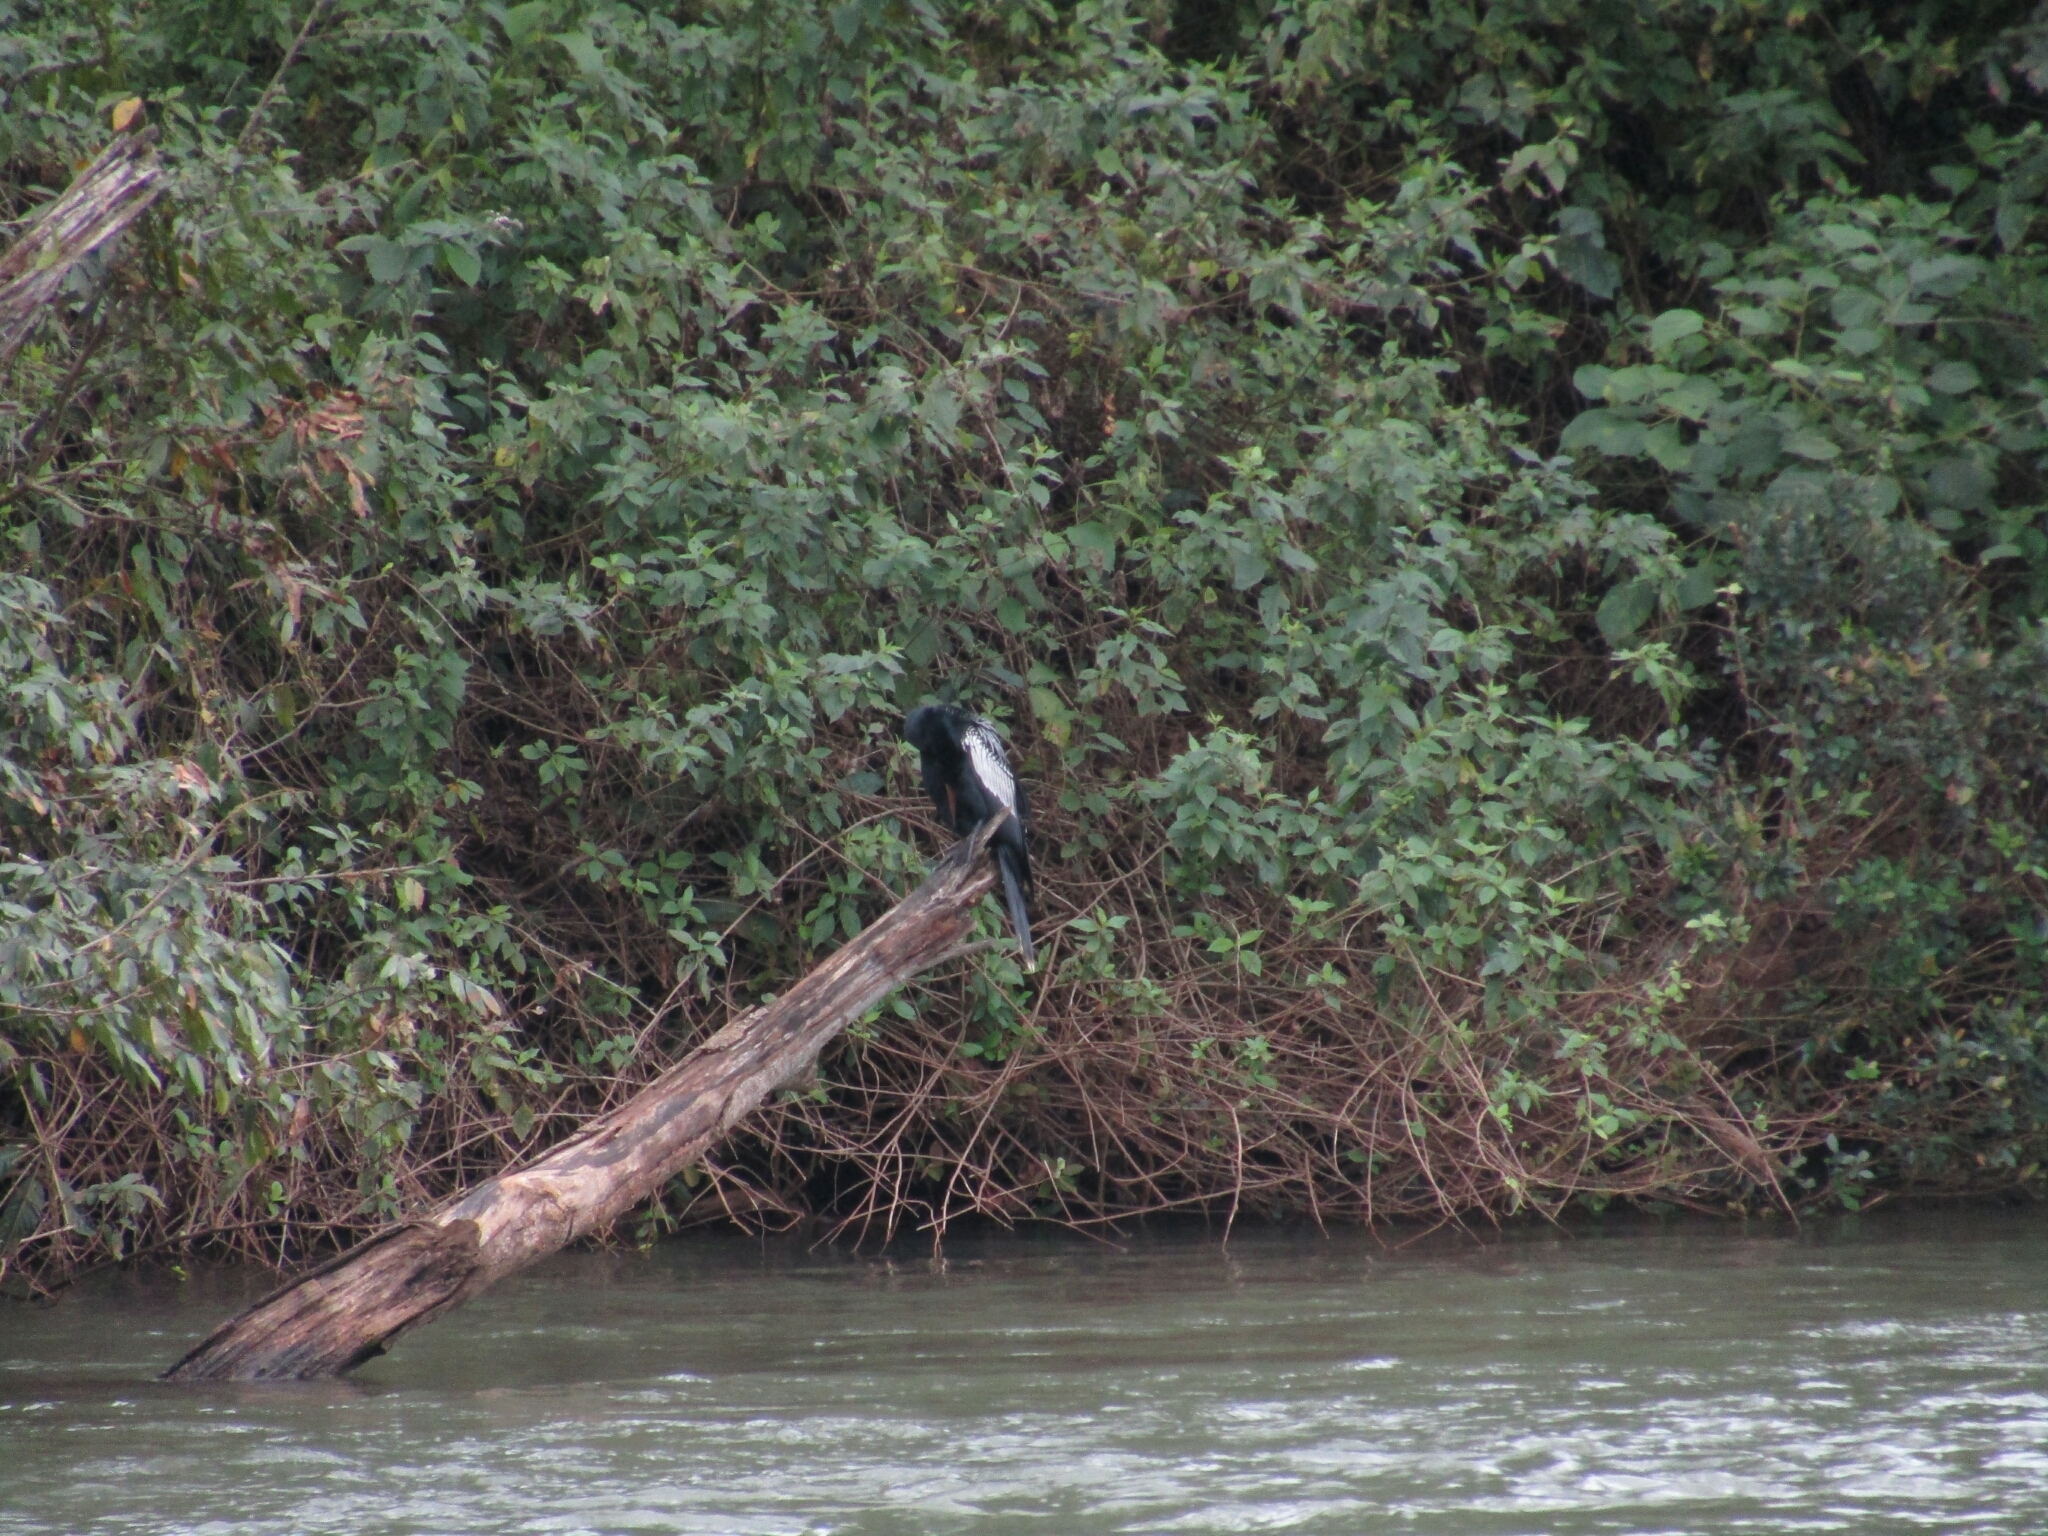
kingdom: Animalia
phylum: Chordata
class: Aves
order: Suliformes
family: Anhingidae
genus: Anhinga
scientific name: Anhinga anhinga
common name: Anhinga
